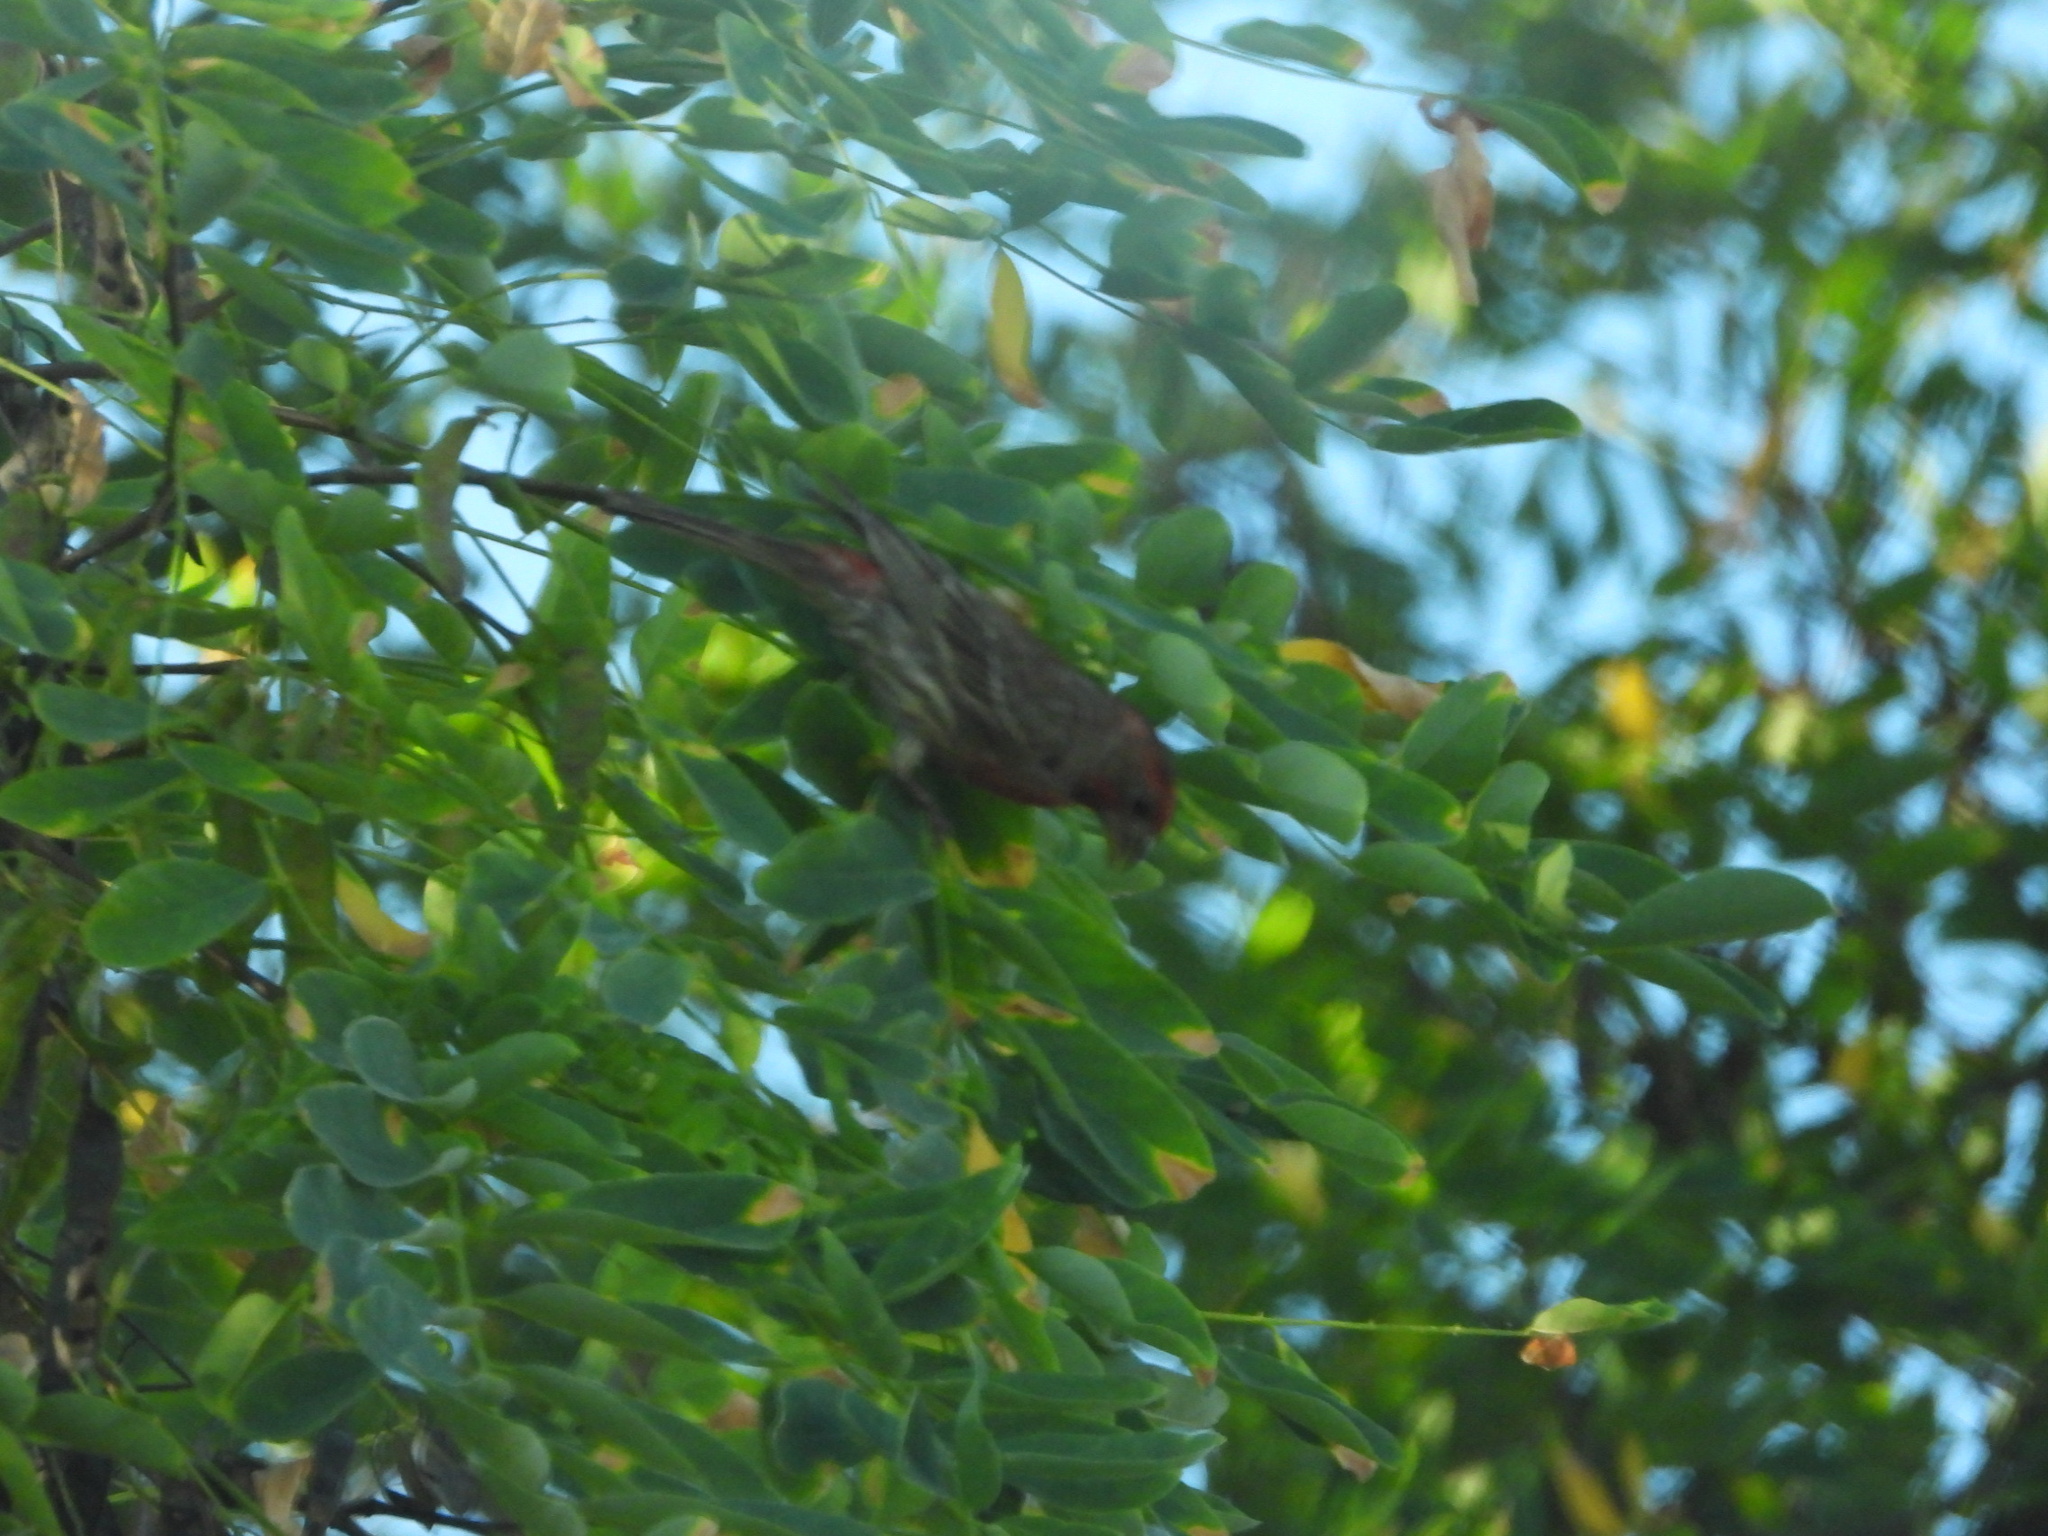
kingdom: Animalia
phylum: Chordata
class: Aves
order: Passeriformes
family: Fringillidae
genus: Haemorhous
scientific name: Haemorhous mexicanus
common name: House finch
